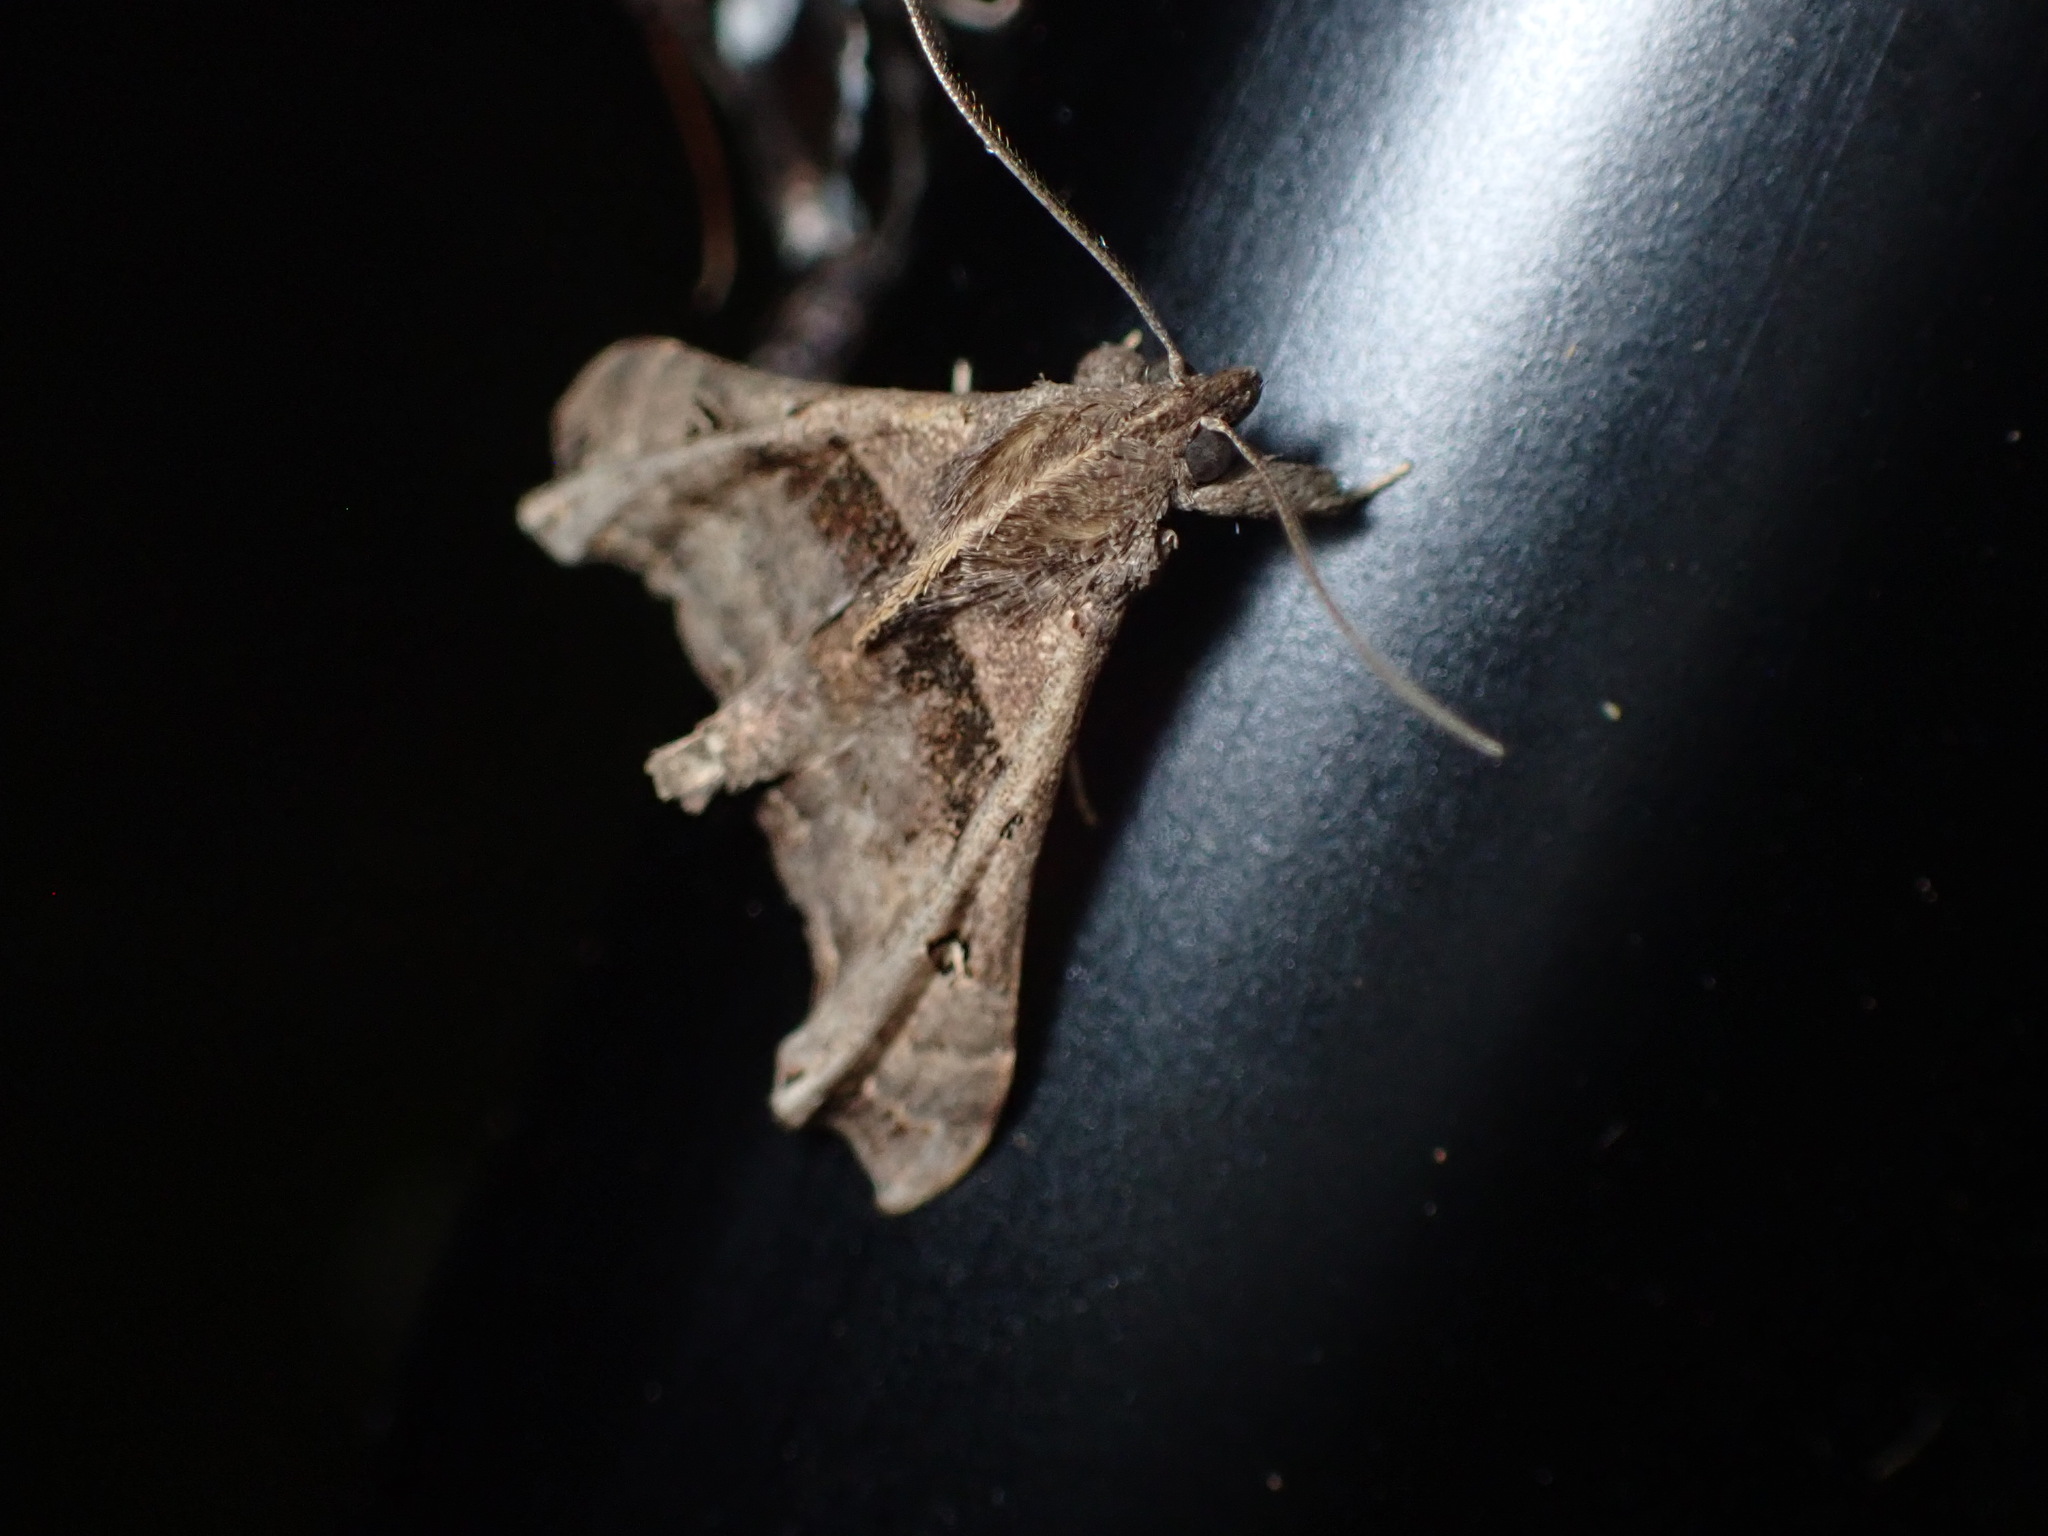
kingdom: Animalia
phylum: Arthropoda
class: Insecta
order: Lepidoptera
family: Erebidae
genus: Palthis
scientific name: Palthis asopialis
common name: Faint-spotted palthis moth
